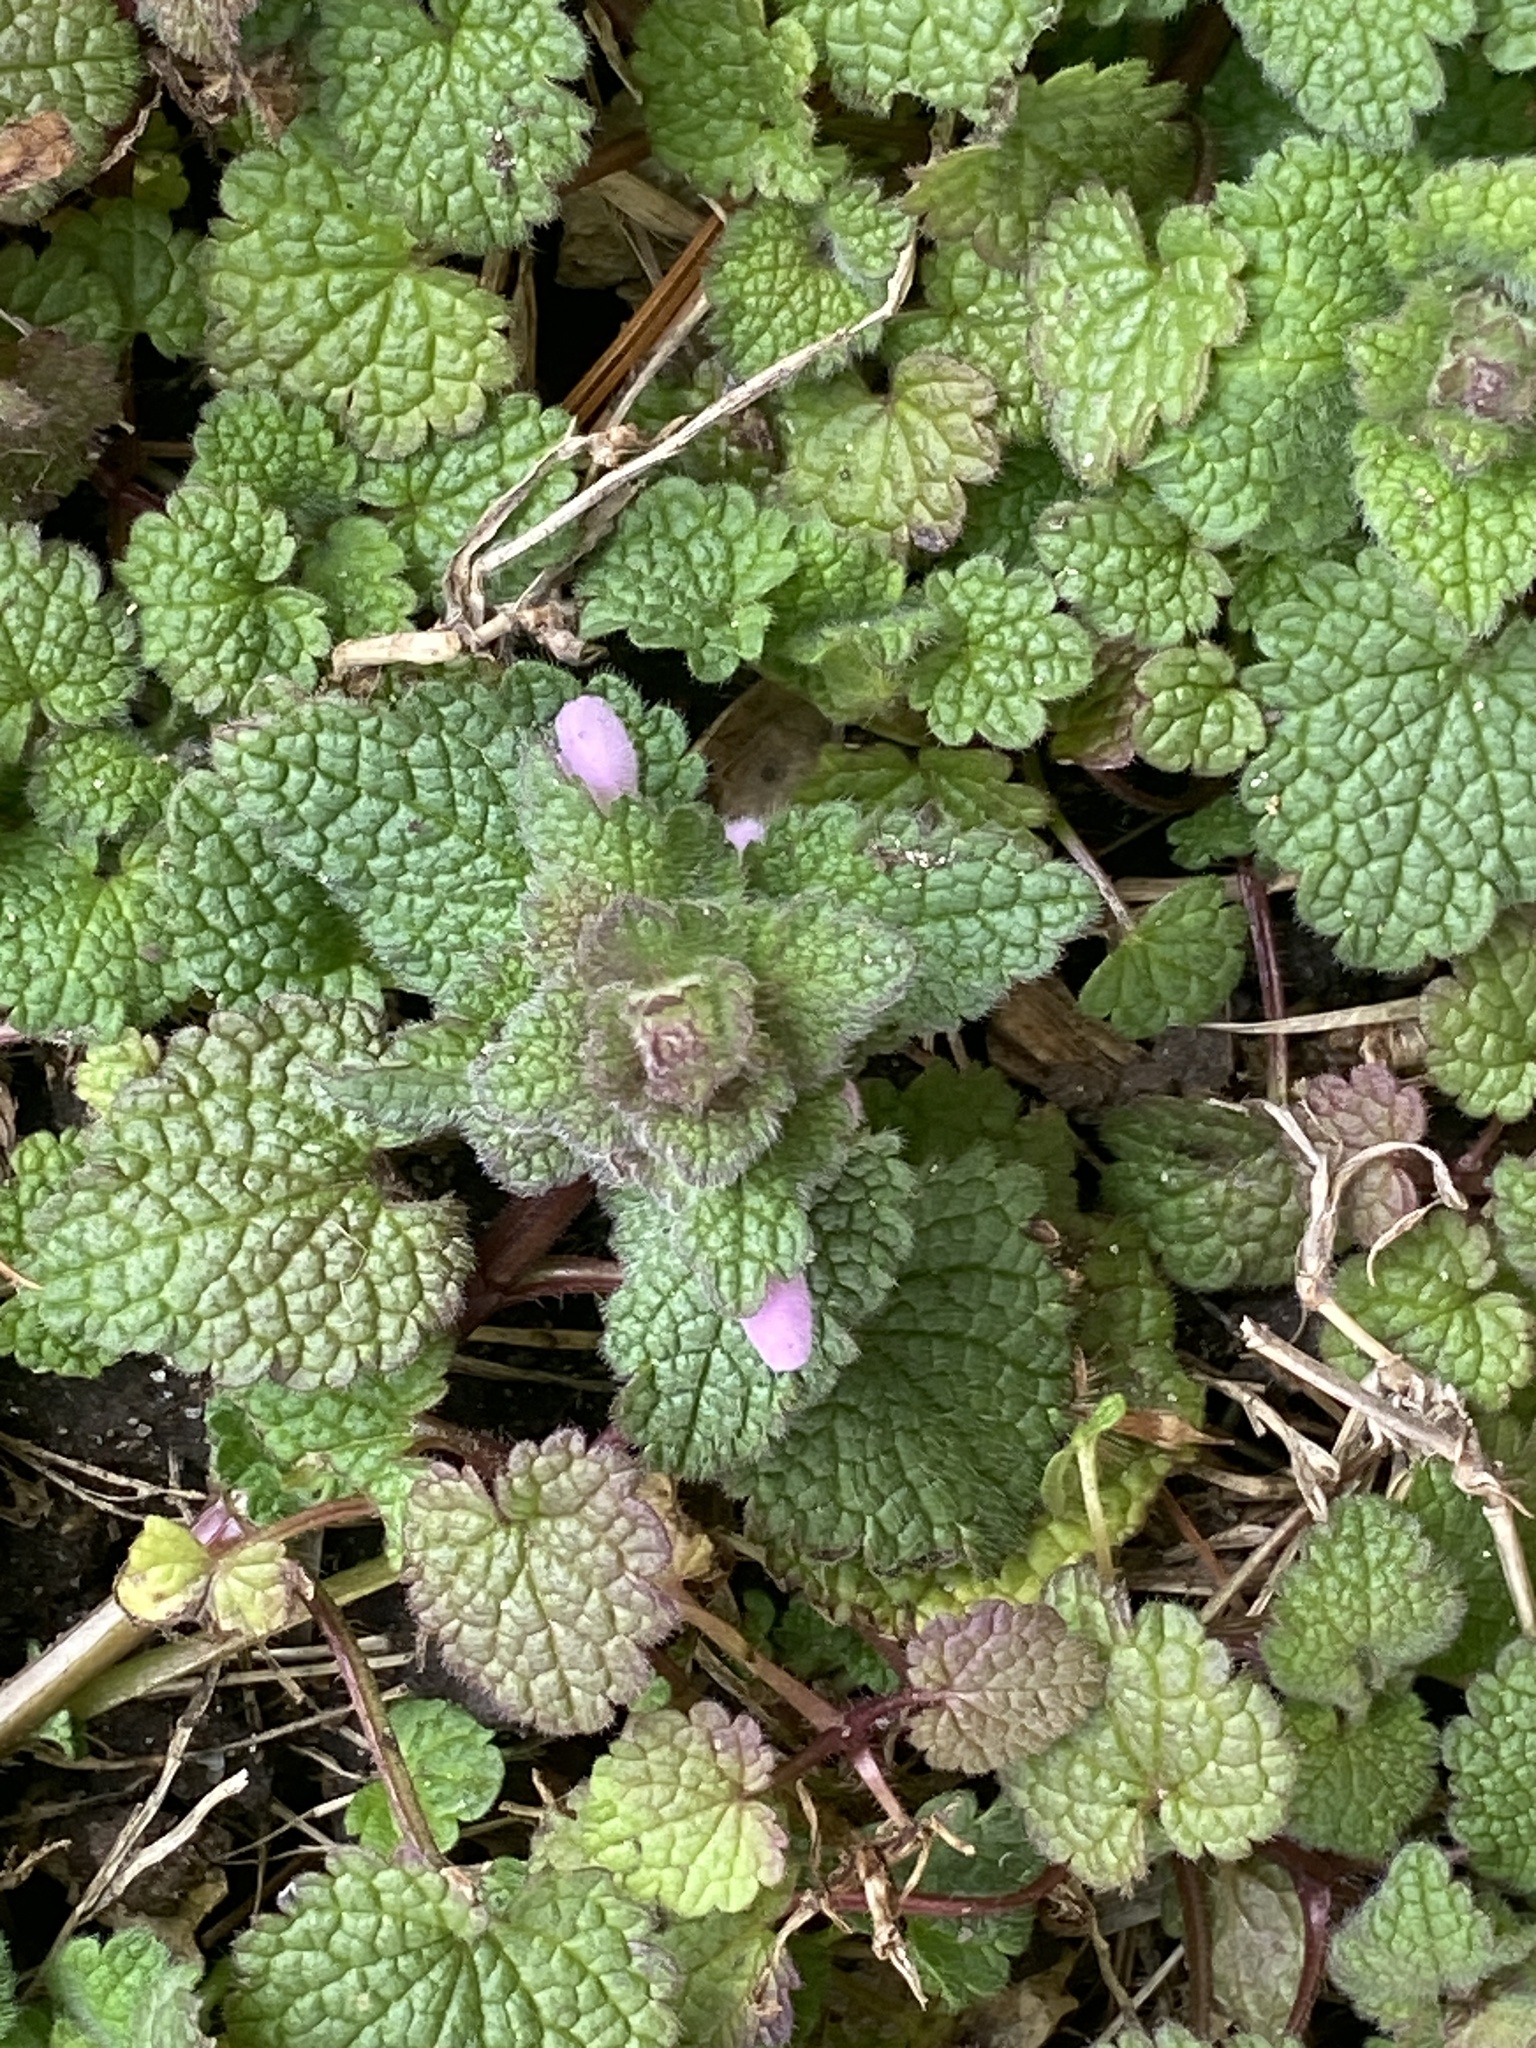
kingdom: Plantae
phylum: Tracheophyta
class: Magnoliopsida
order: Lamiales
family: Lamiaceae
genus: Lamium
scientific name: Lamium purpureum
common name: Red dead-nettle
